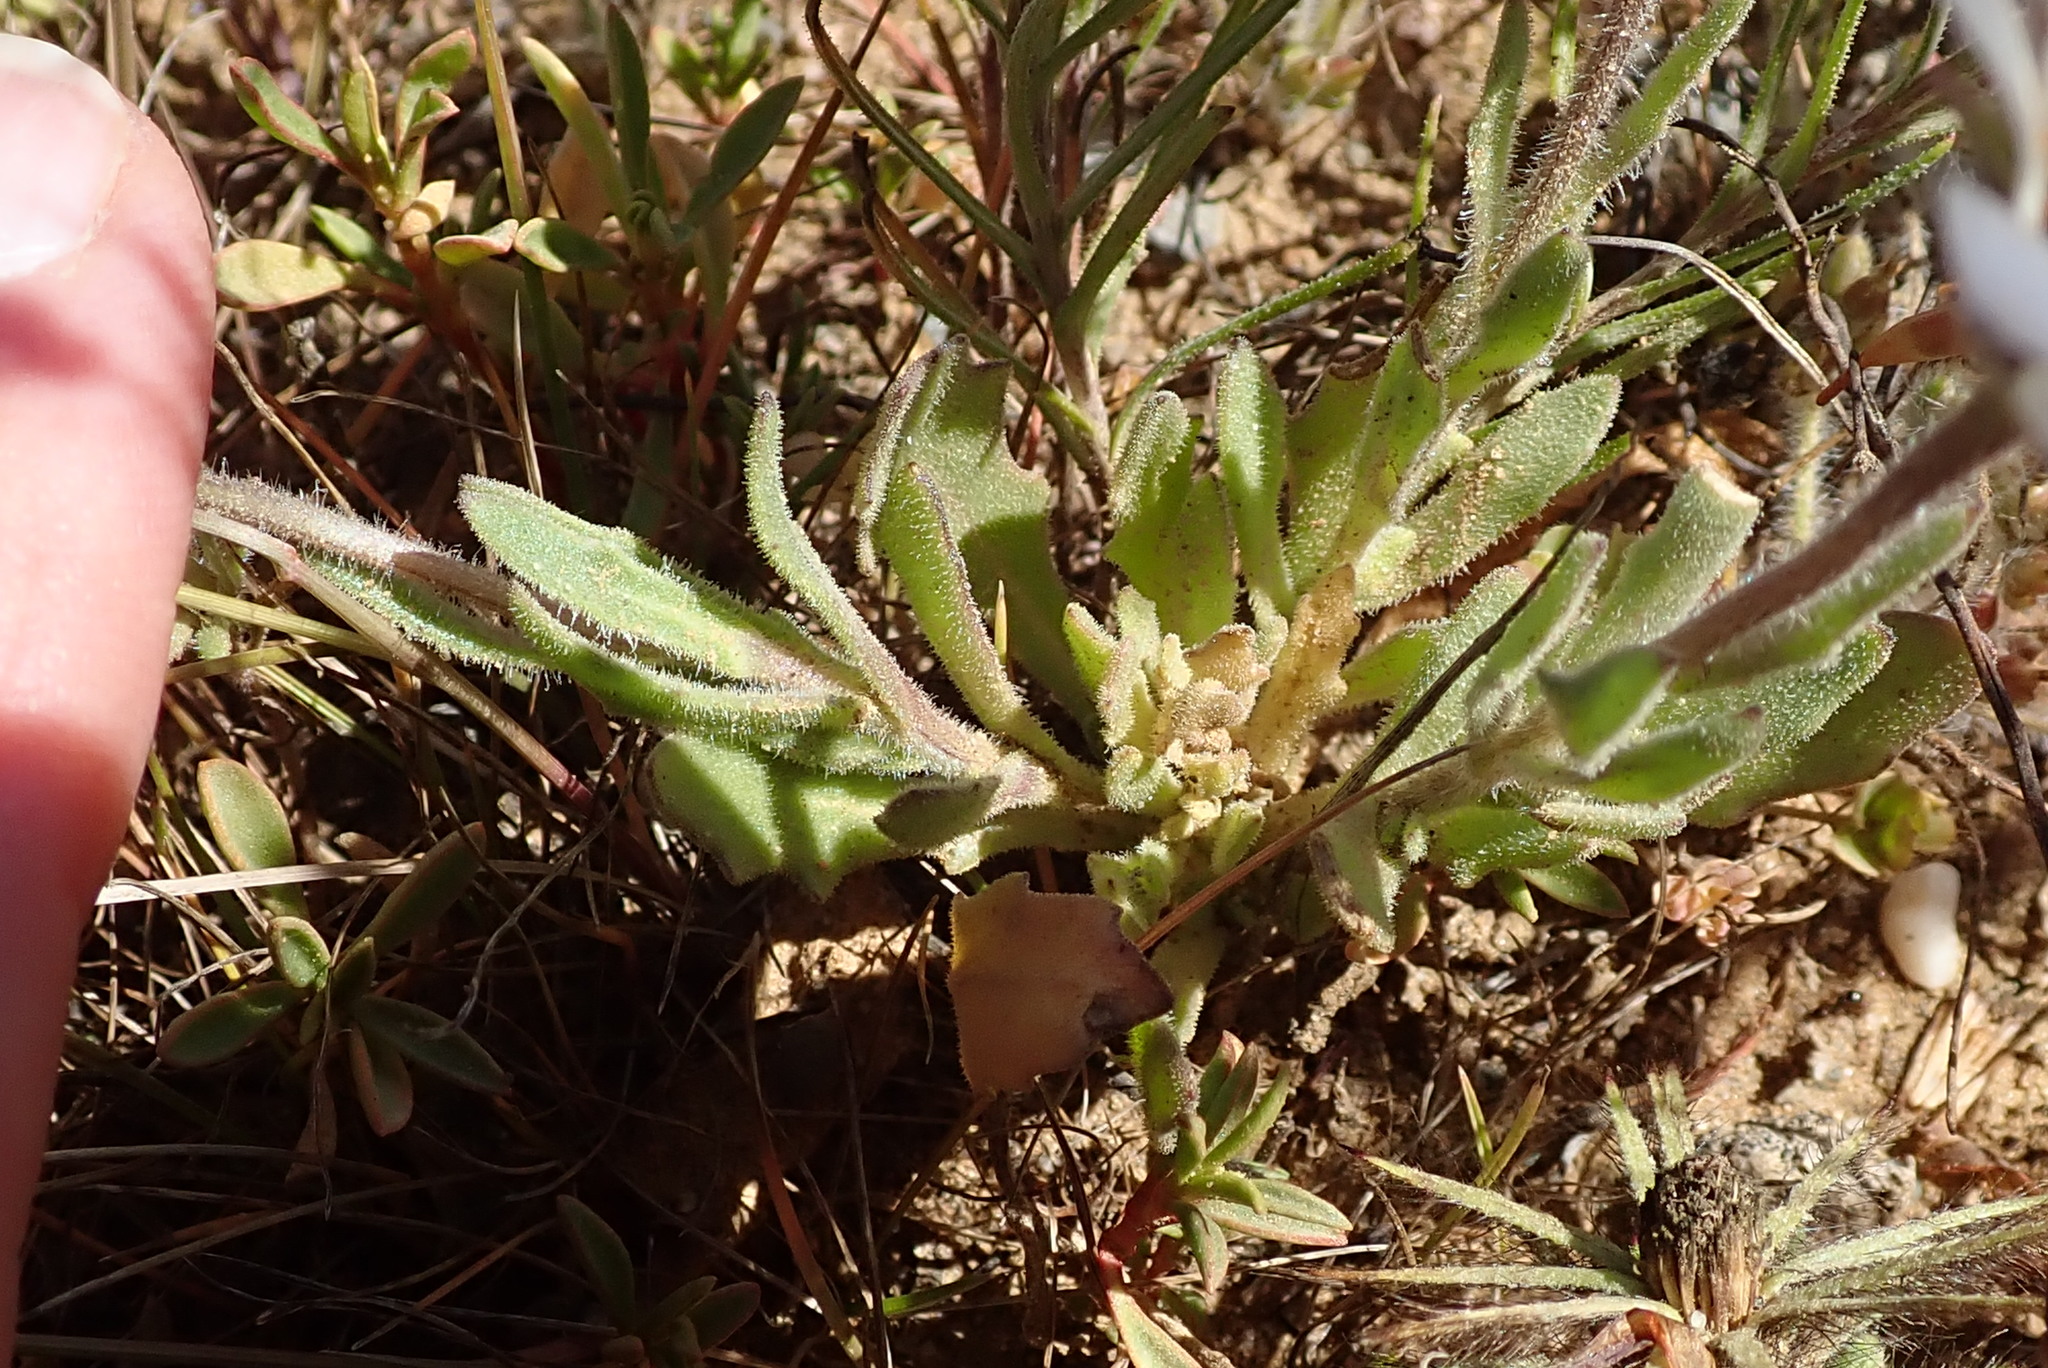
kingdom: Plantae
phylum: Tracheophyta
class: Magnoliopsida
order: Asterales
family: Asteraceae
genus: Dimorphotheca
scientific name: Dimorphotheca pluvialis
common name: Weather prophet
